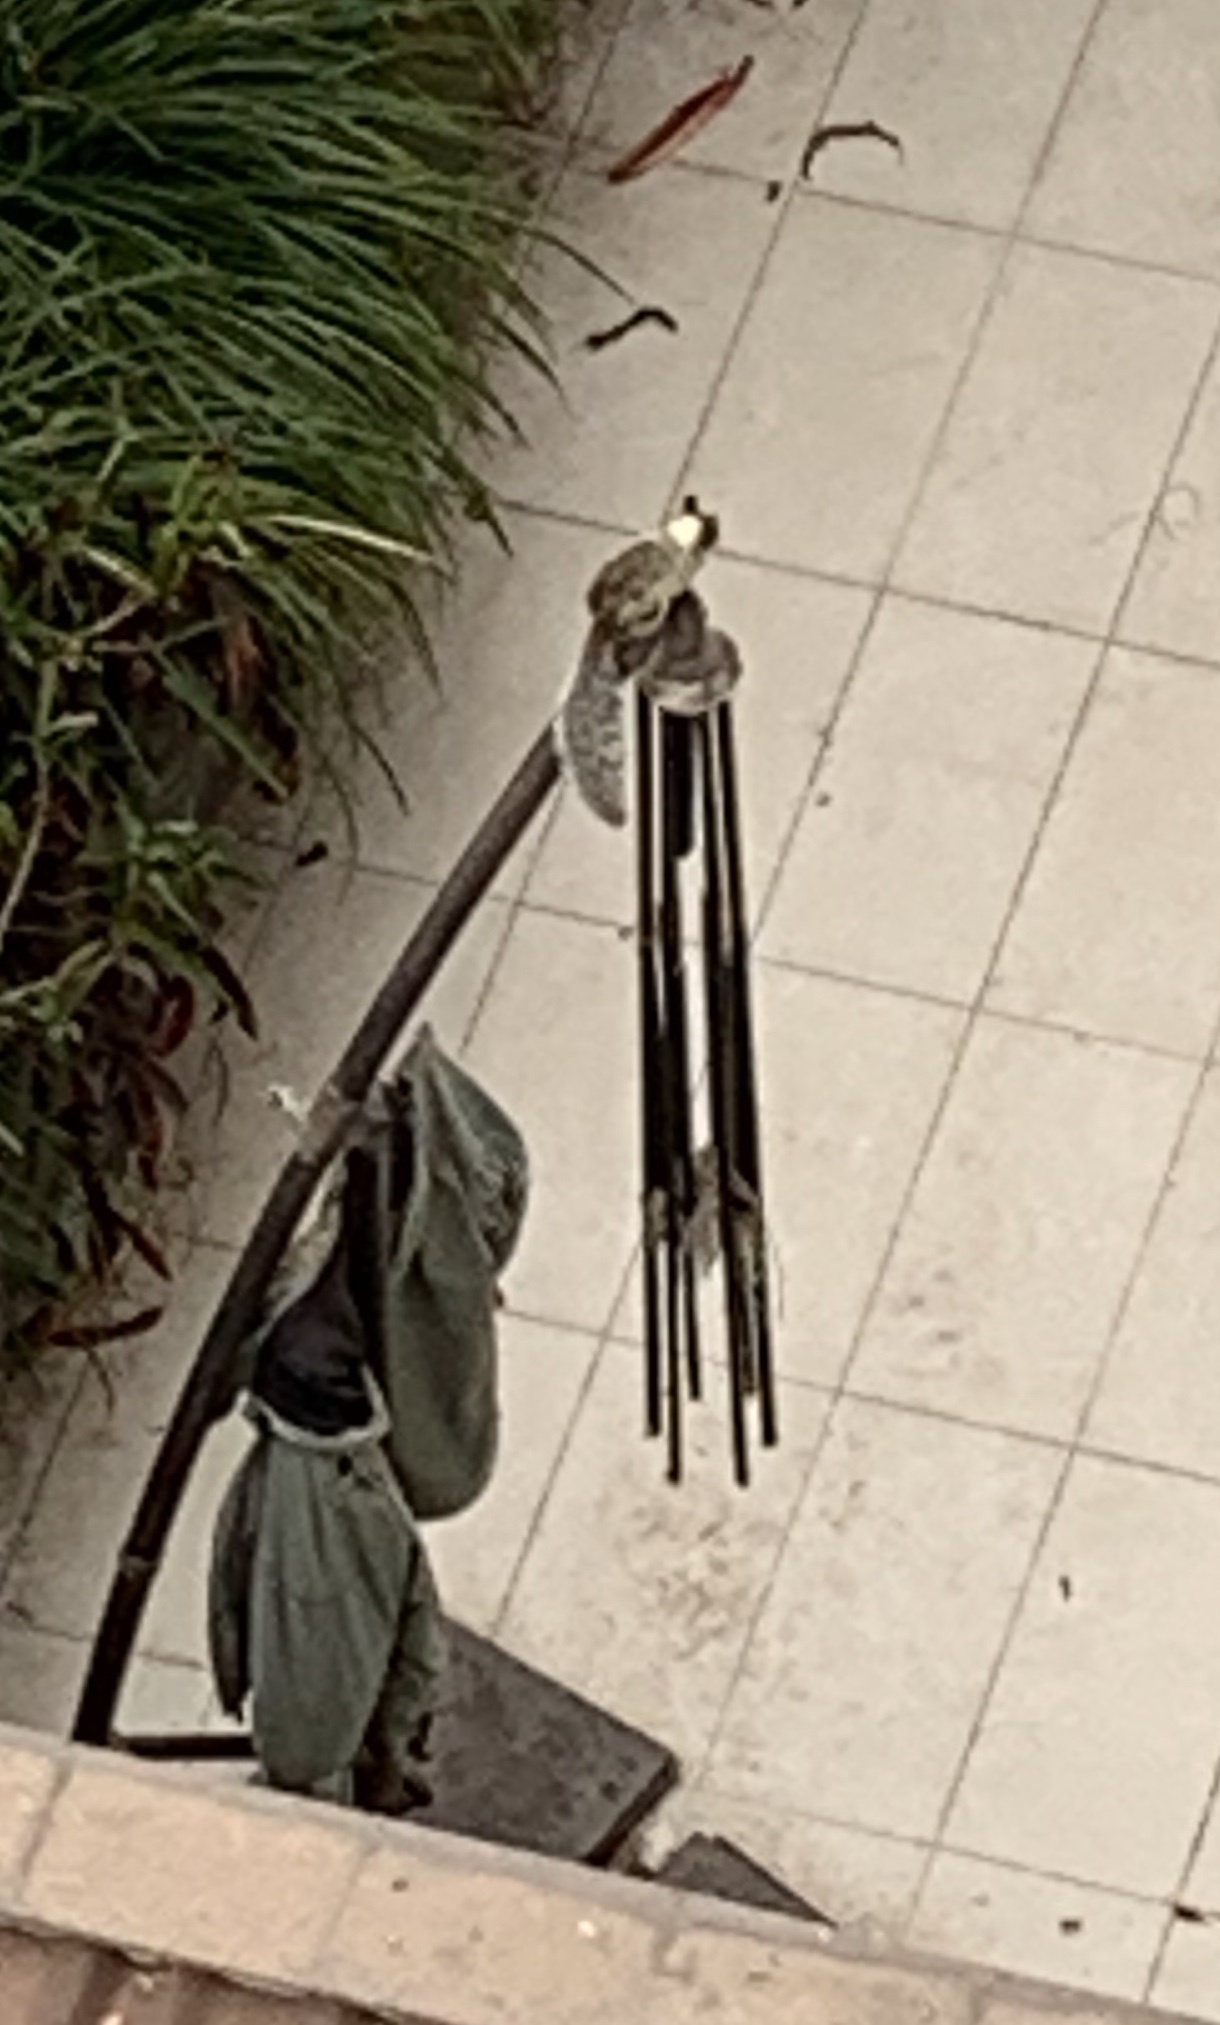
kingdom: Animalia
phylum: Chordata
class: Mammalia
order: Rodentia
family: Sciuridae
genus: Sciurus
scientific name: Sciurus stramineus
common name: Guayaquil squirrel
